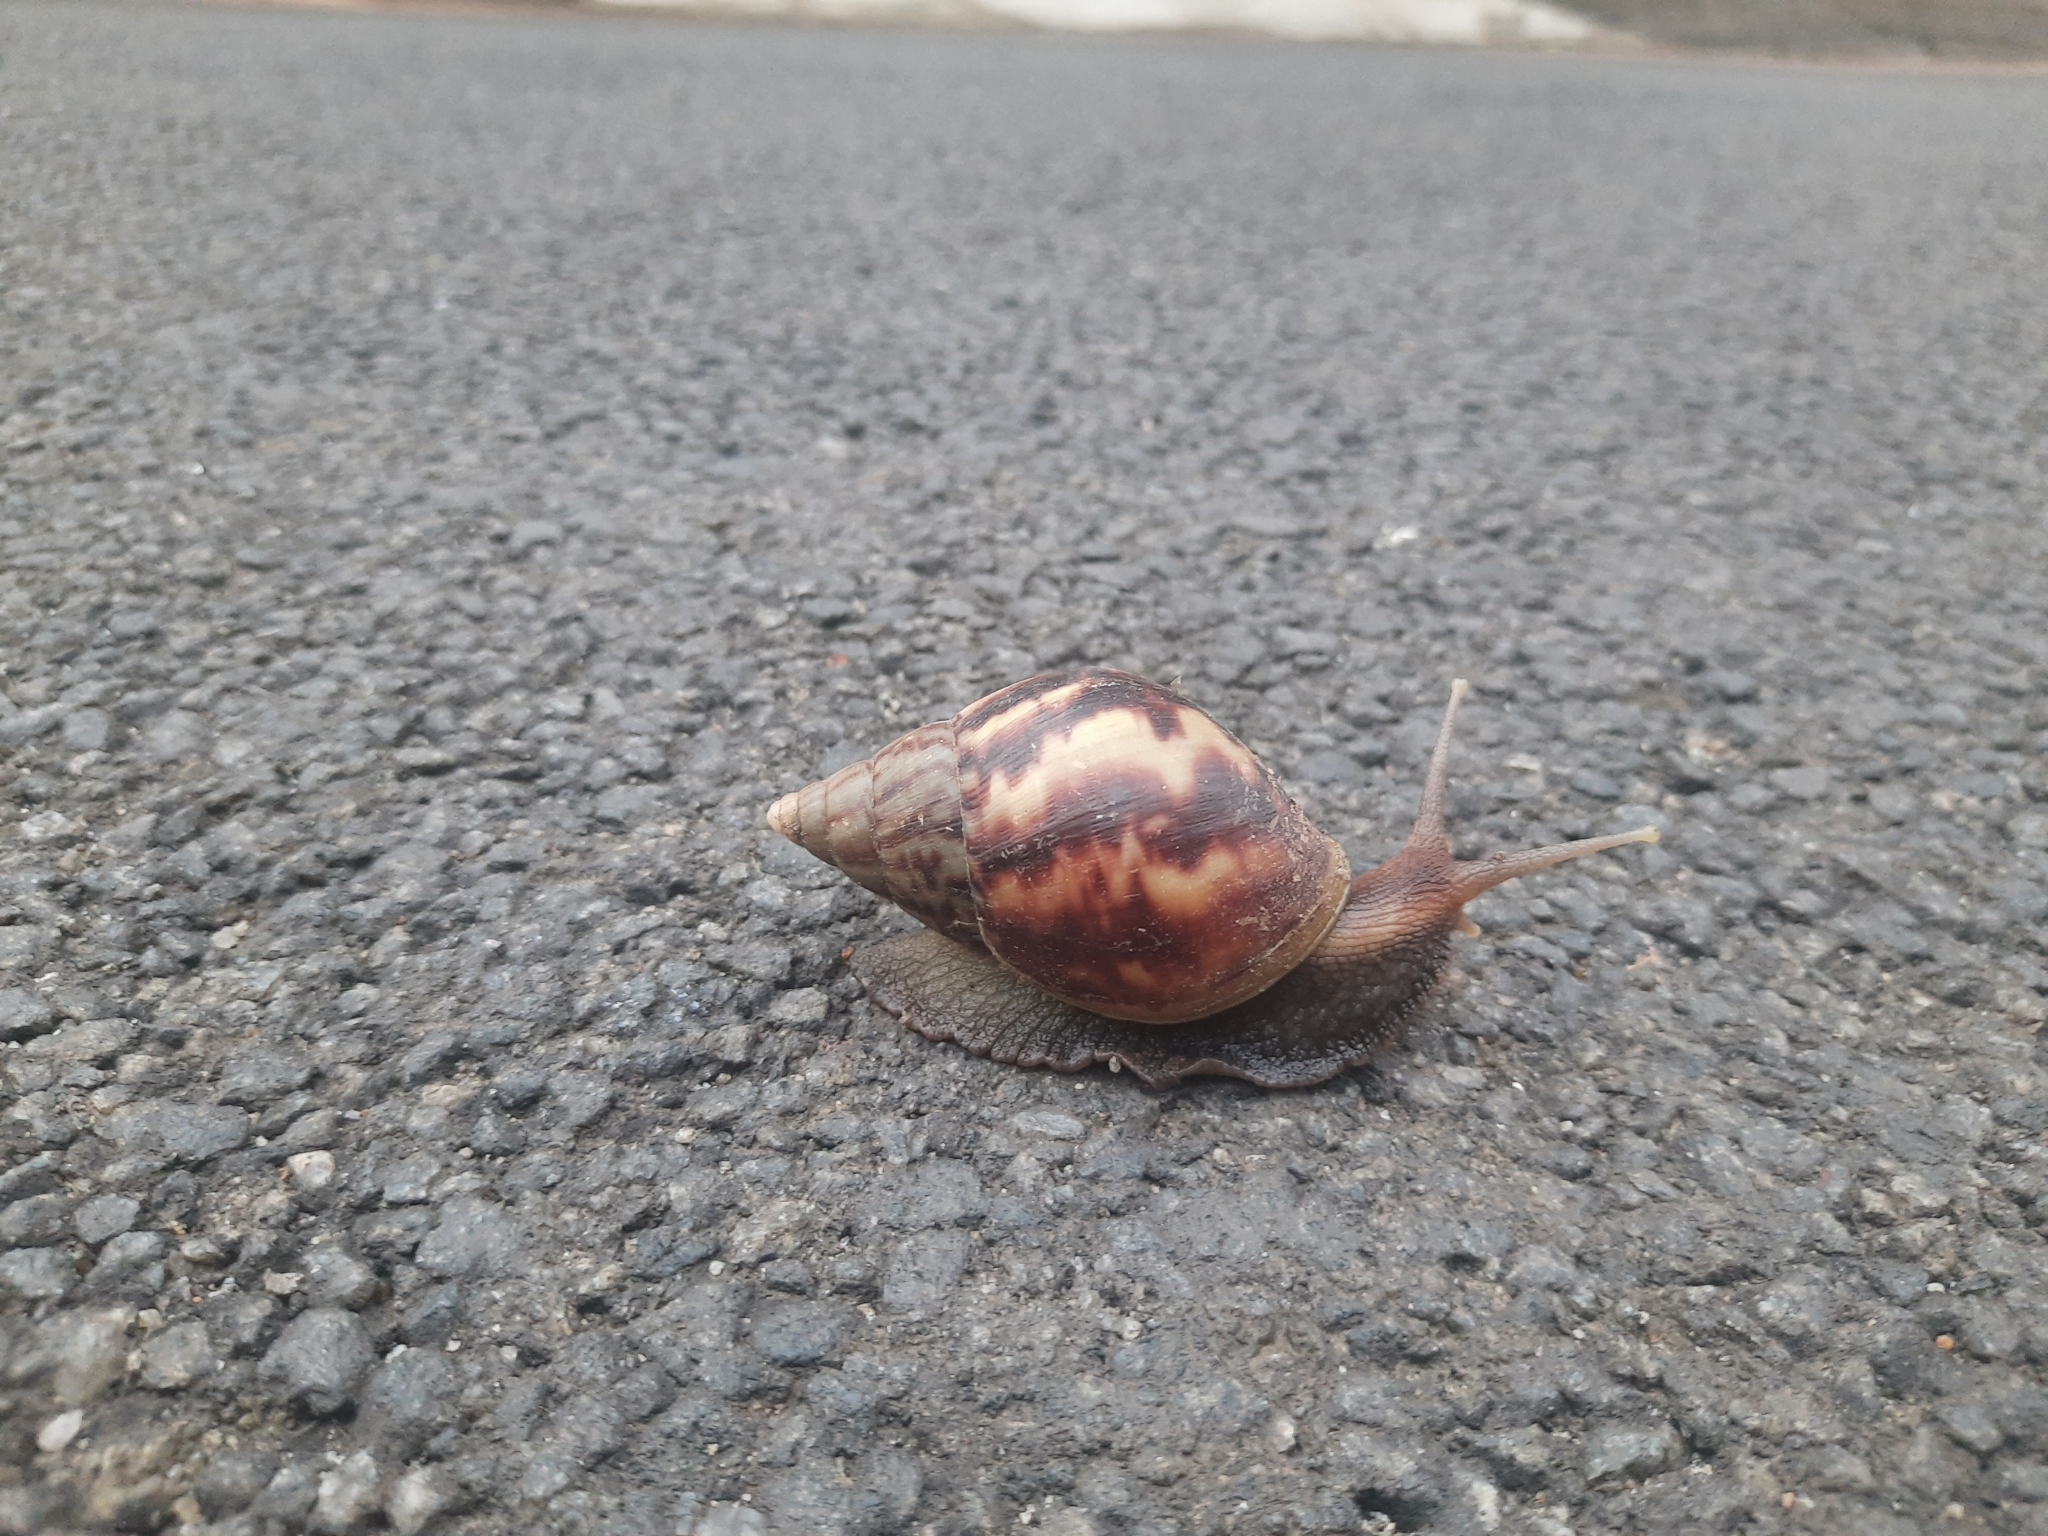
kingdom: Animalia
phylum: Mollusca
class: Gastropoda
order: Stylommatophora
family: Achatinidae
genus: Lissachatina
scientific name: Lissachatina fulica
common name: Giant african snail
